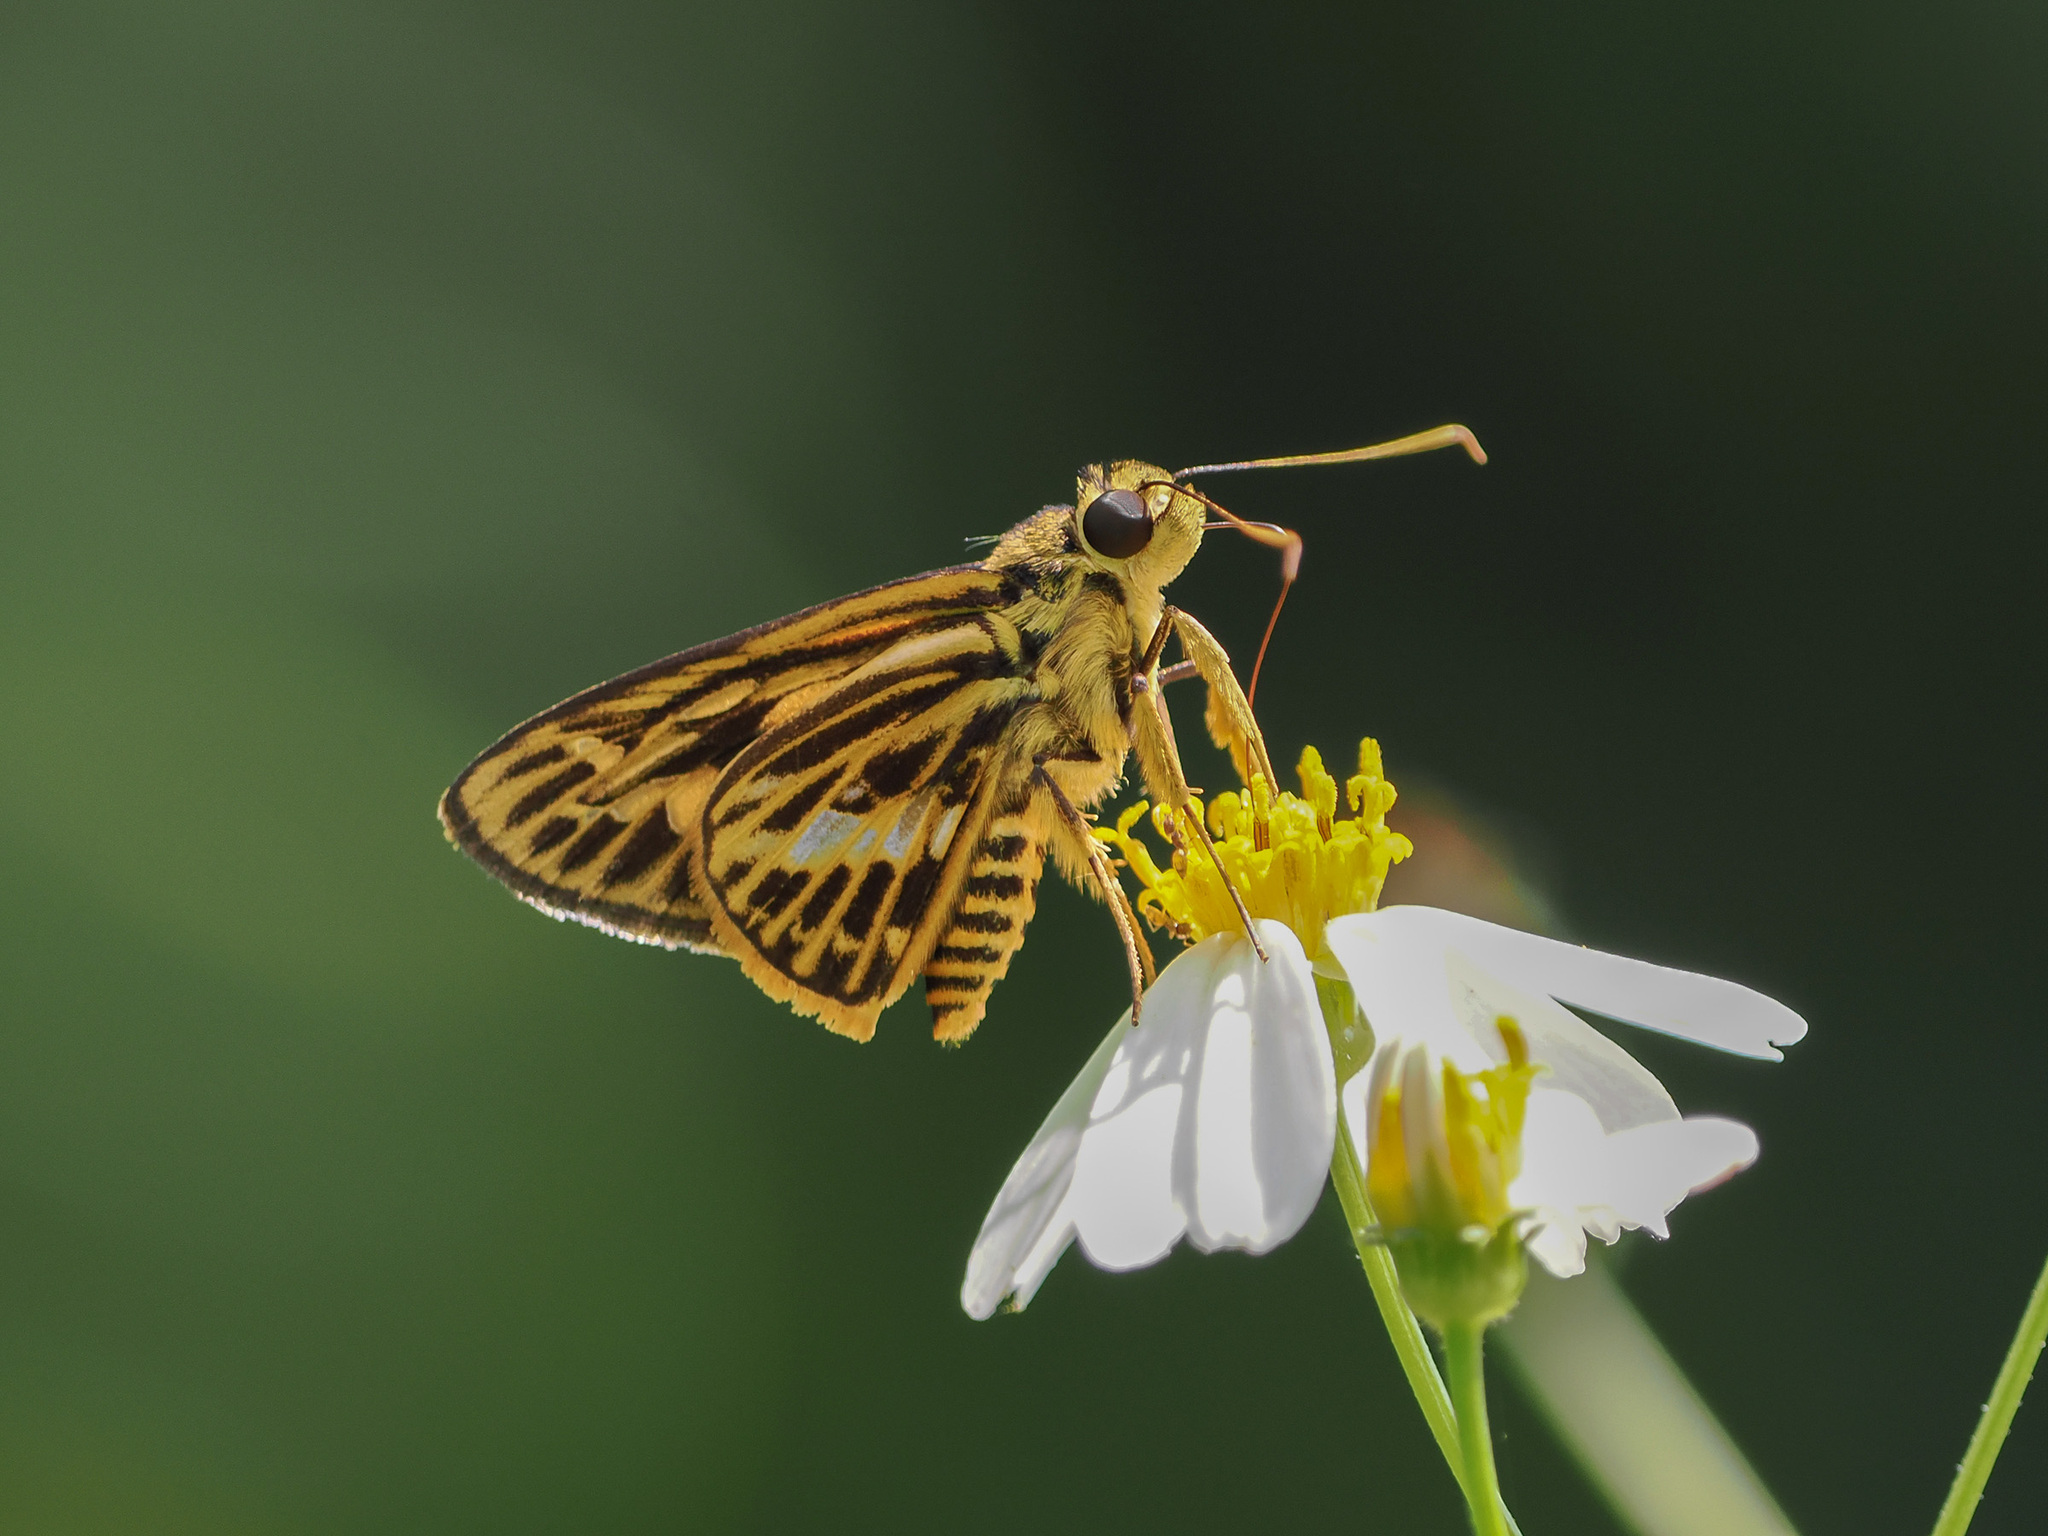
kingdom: Animalia
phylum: Arthropoda
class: Insecta
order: Lepidoptera
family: Hesperiidae
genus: Pyroneura
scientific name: Pyroneura latoia
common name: Yellow vein lancer
